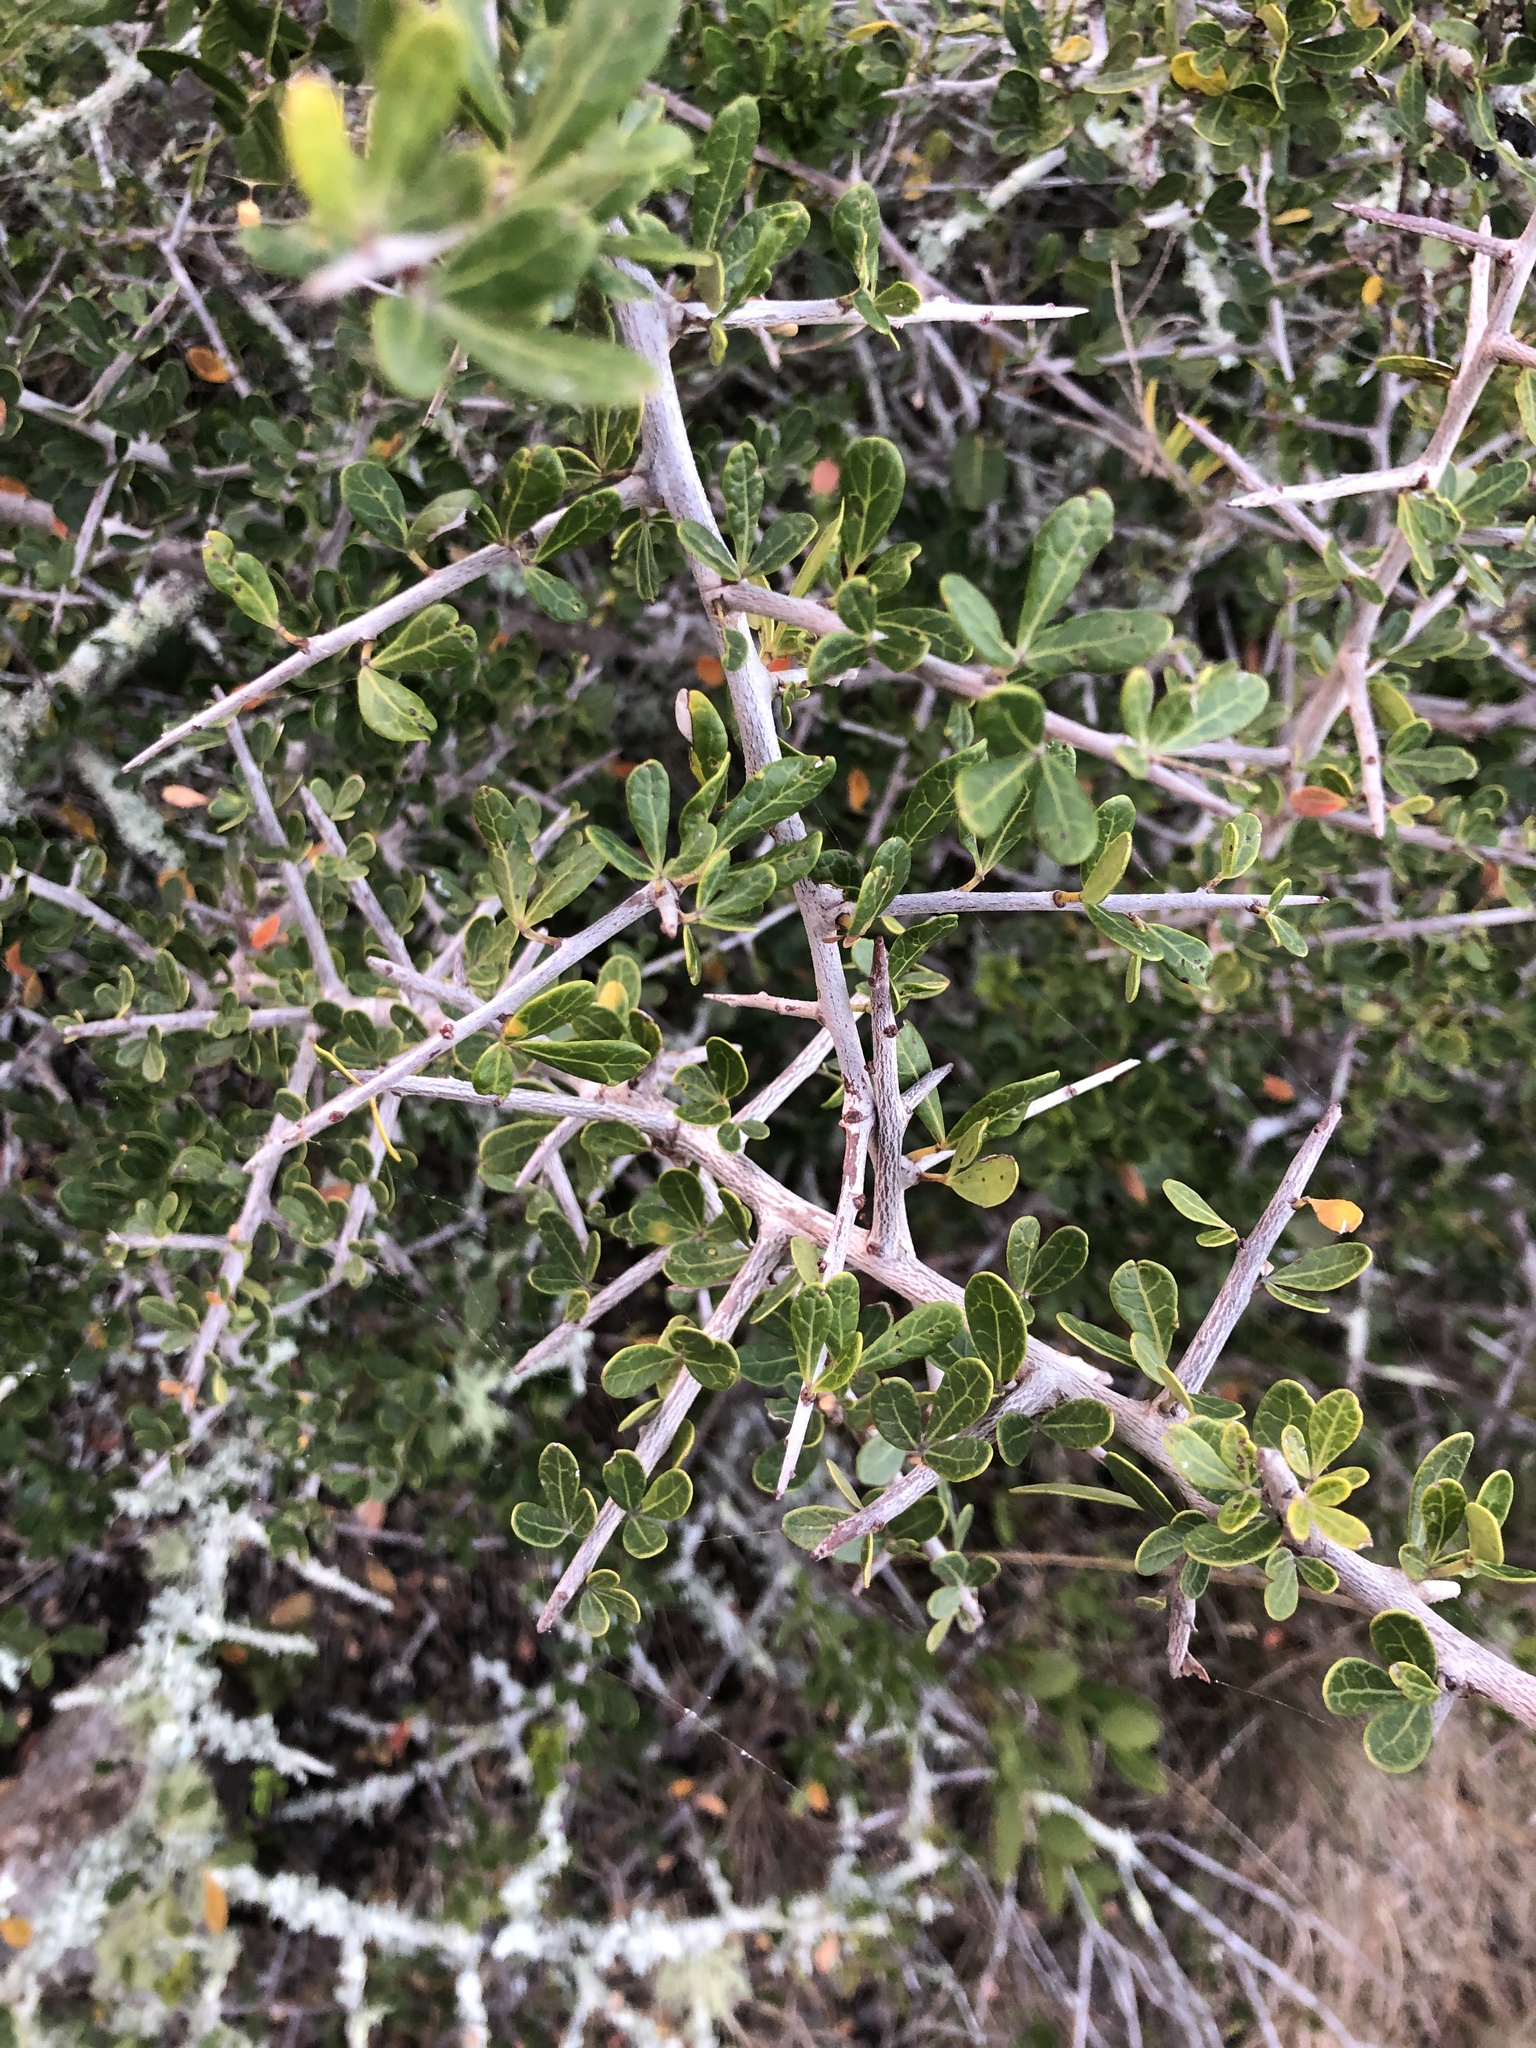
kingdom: Plantae
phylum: Tracheophyta
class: Magnoliopsida
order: Sapindales
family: Anacardiaceae
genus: Searsia
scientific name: Searsia pterota
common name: Winged currant
